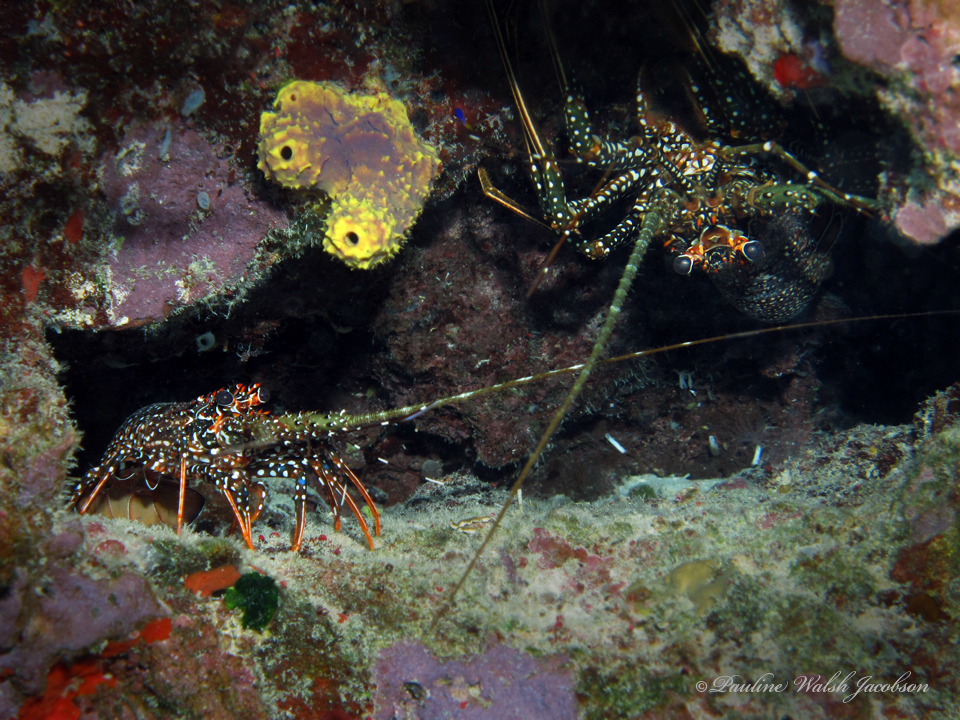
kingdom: Animalia
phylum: Arthropoda
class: Malacostraca
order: Decapoda
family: Palinuridae
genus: Panulirus
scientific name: Panulirus guttatus
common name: Spotted spiny lobster
